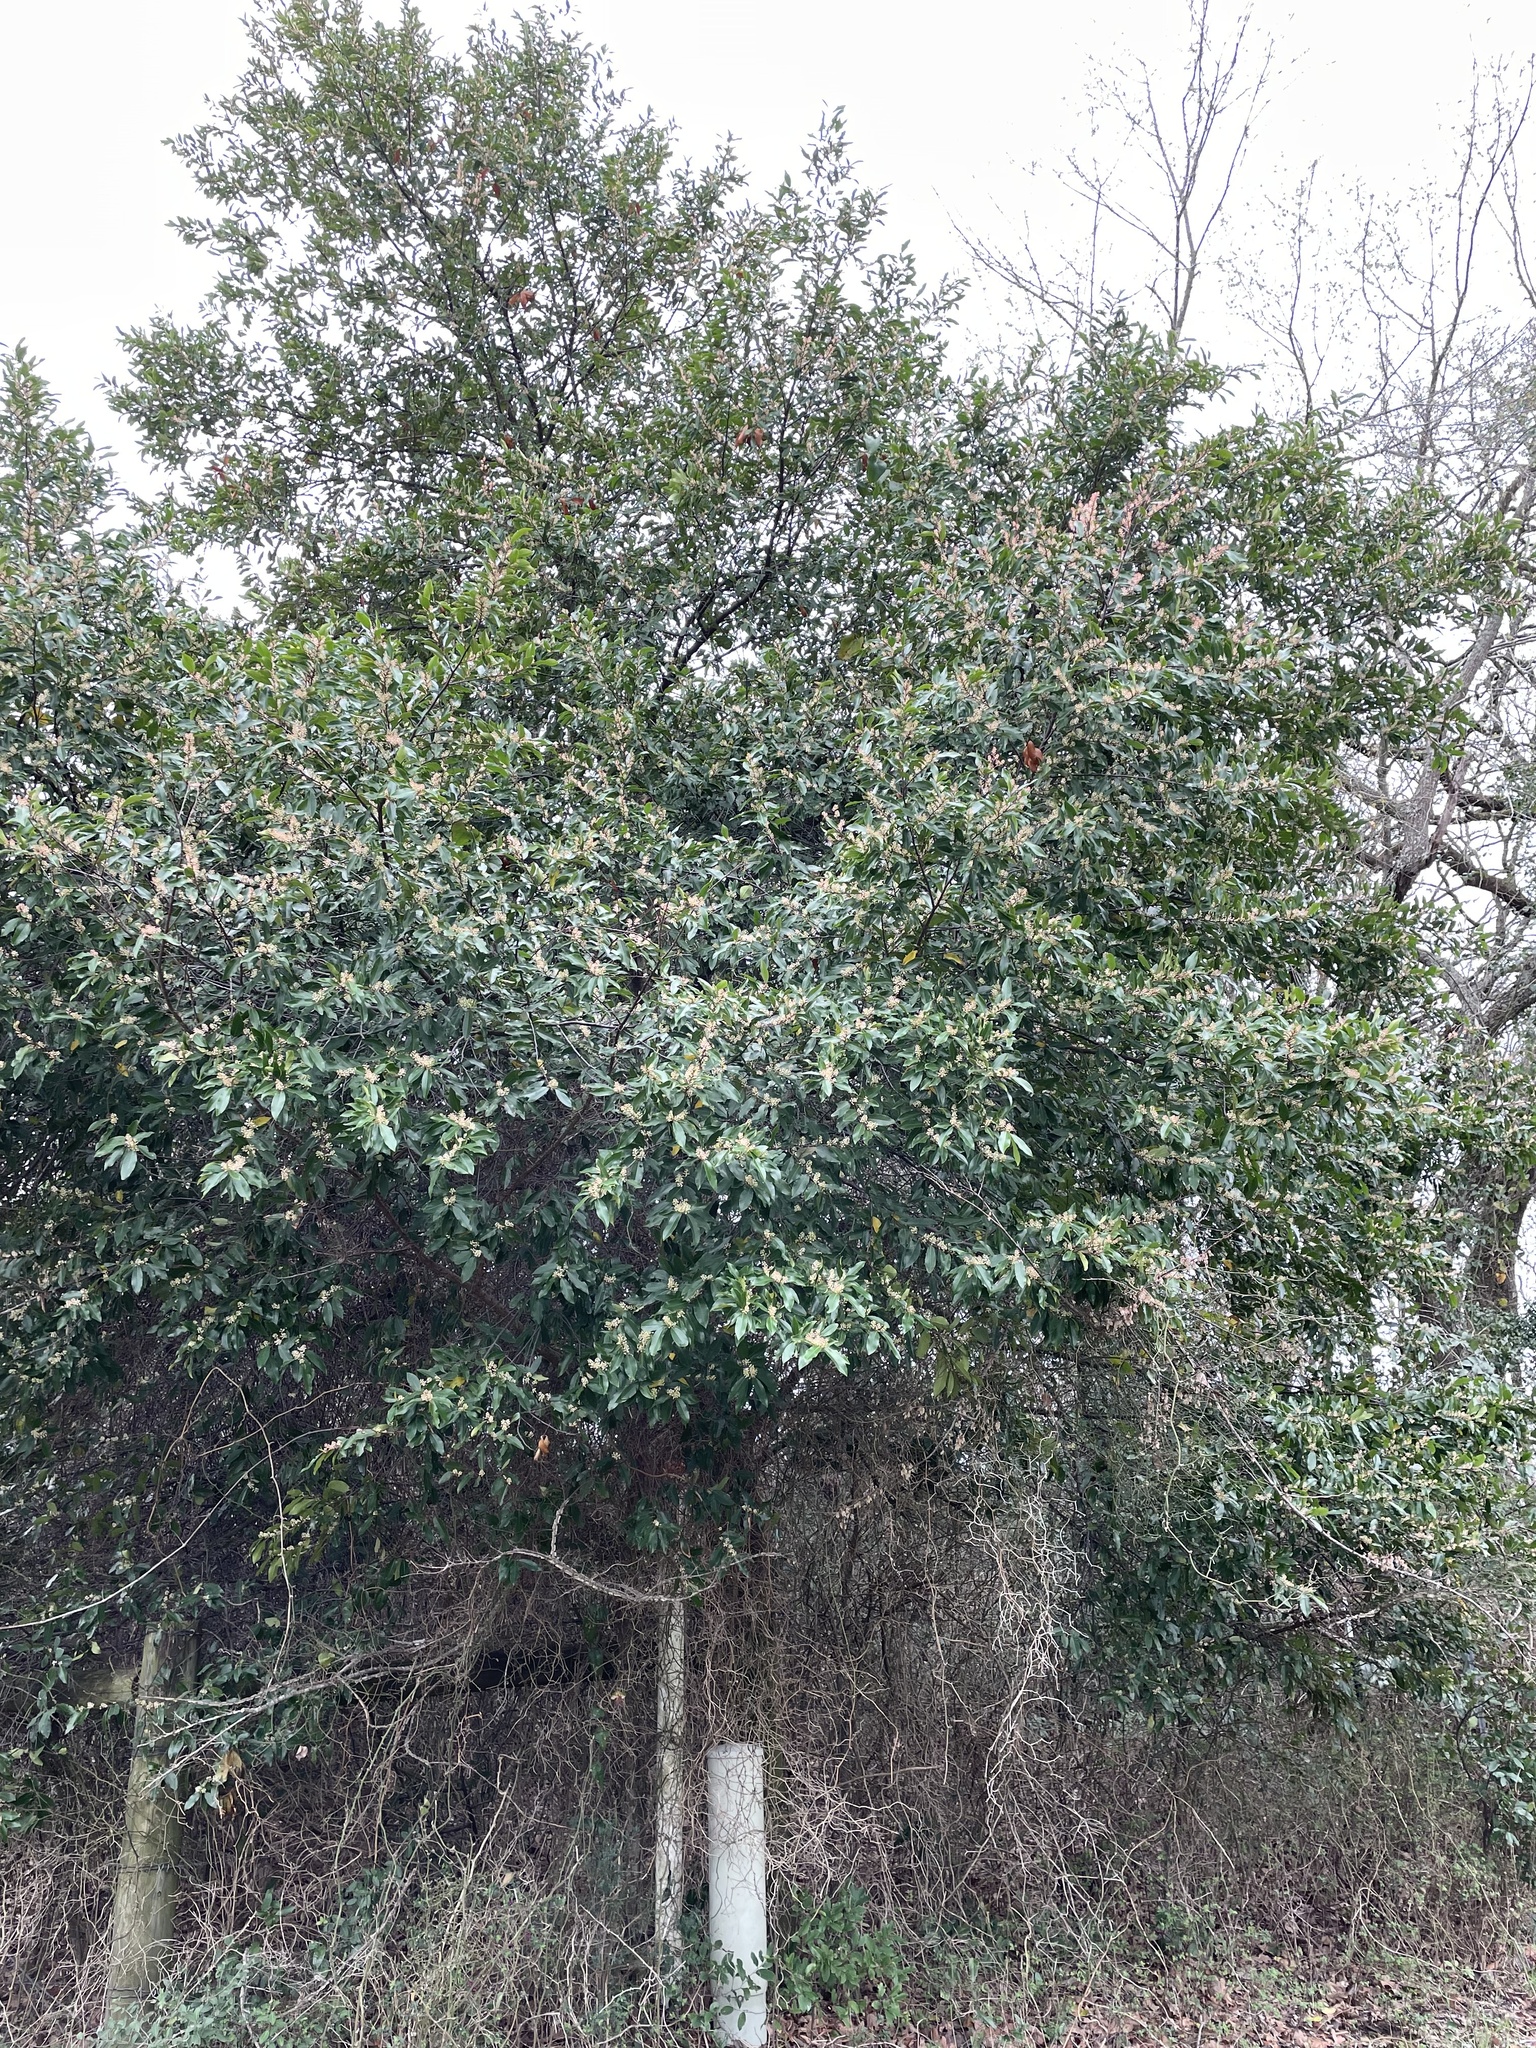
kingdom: Plantae
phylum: Tracheophyta
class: Magnoliopsida
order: Rosales
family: Rosaceae
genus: Prunus
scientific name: Prunus caroliniana
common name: Carolina laurel cherry
